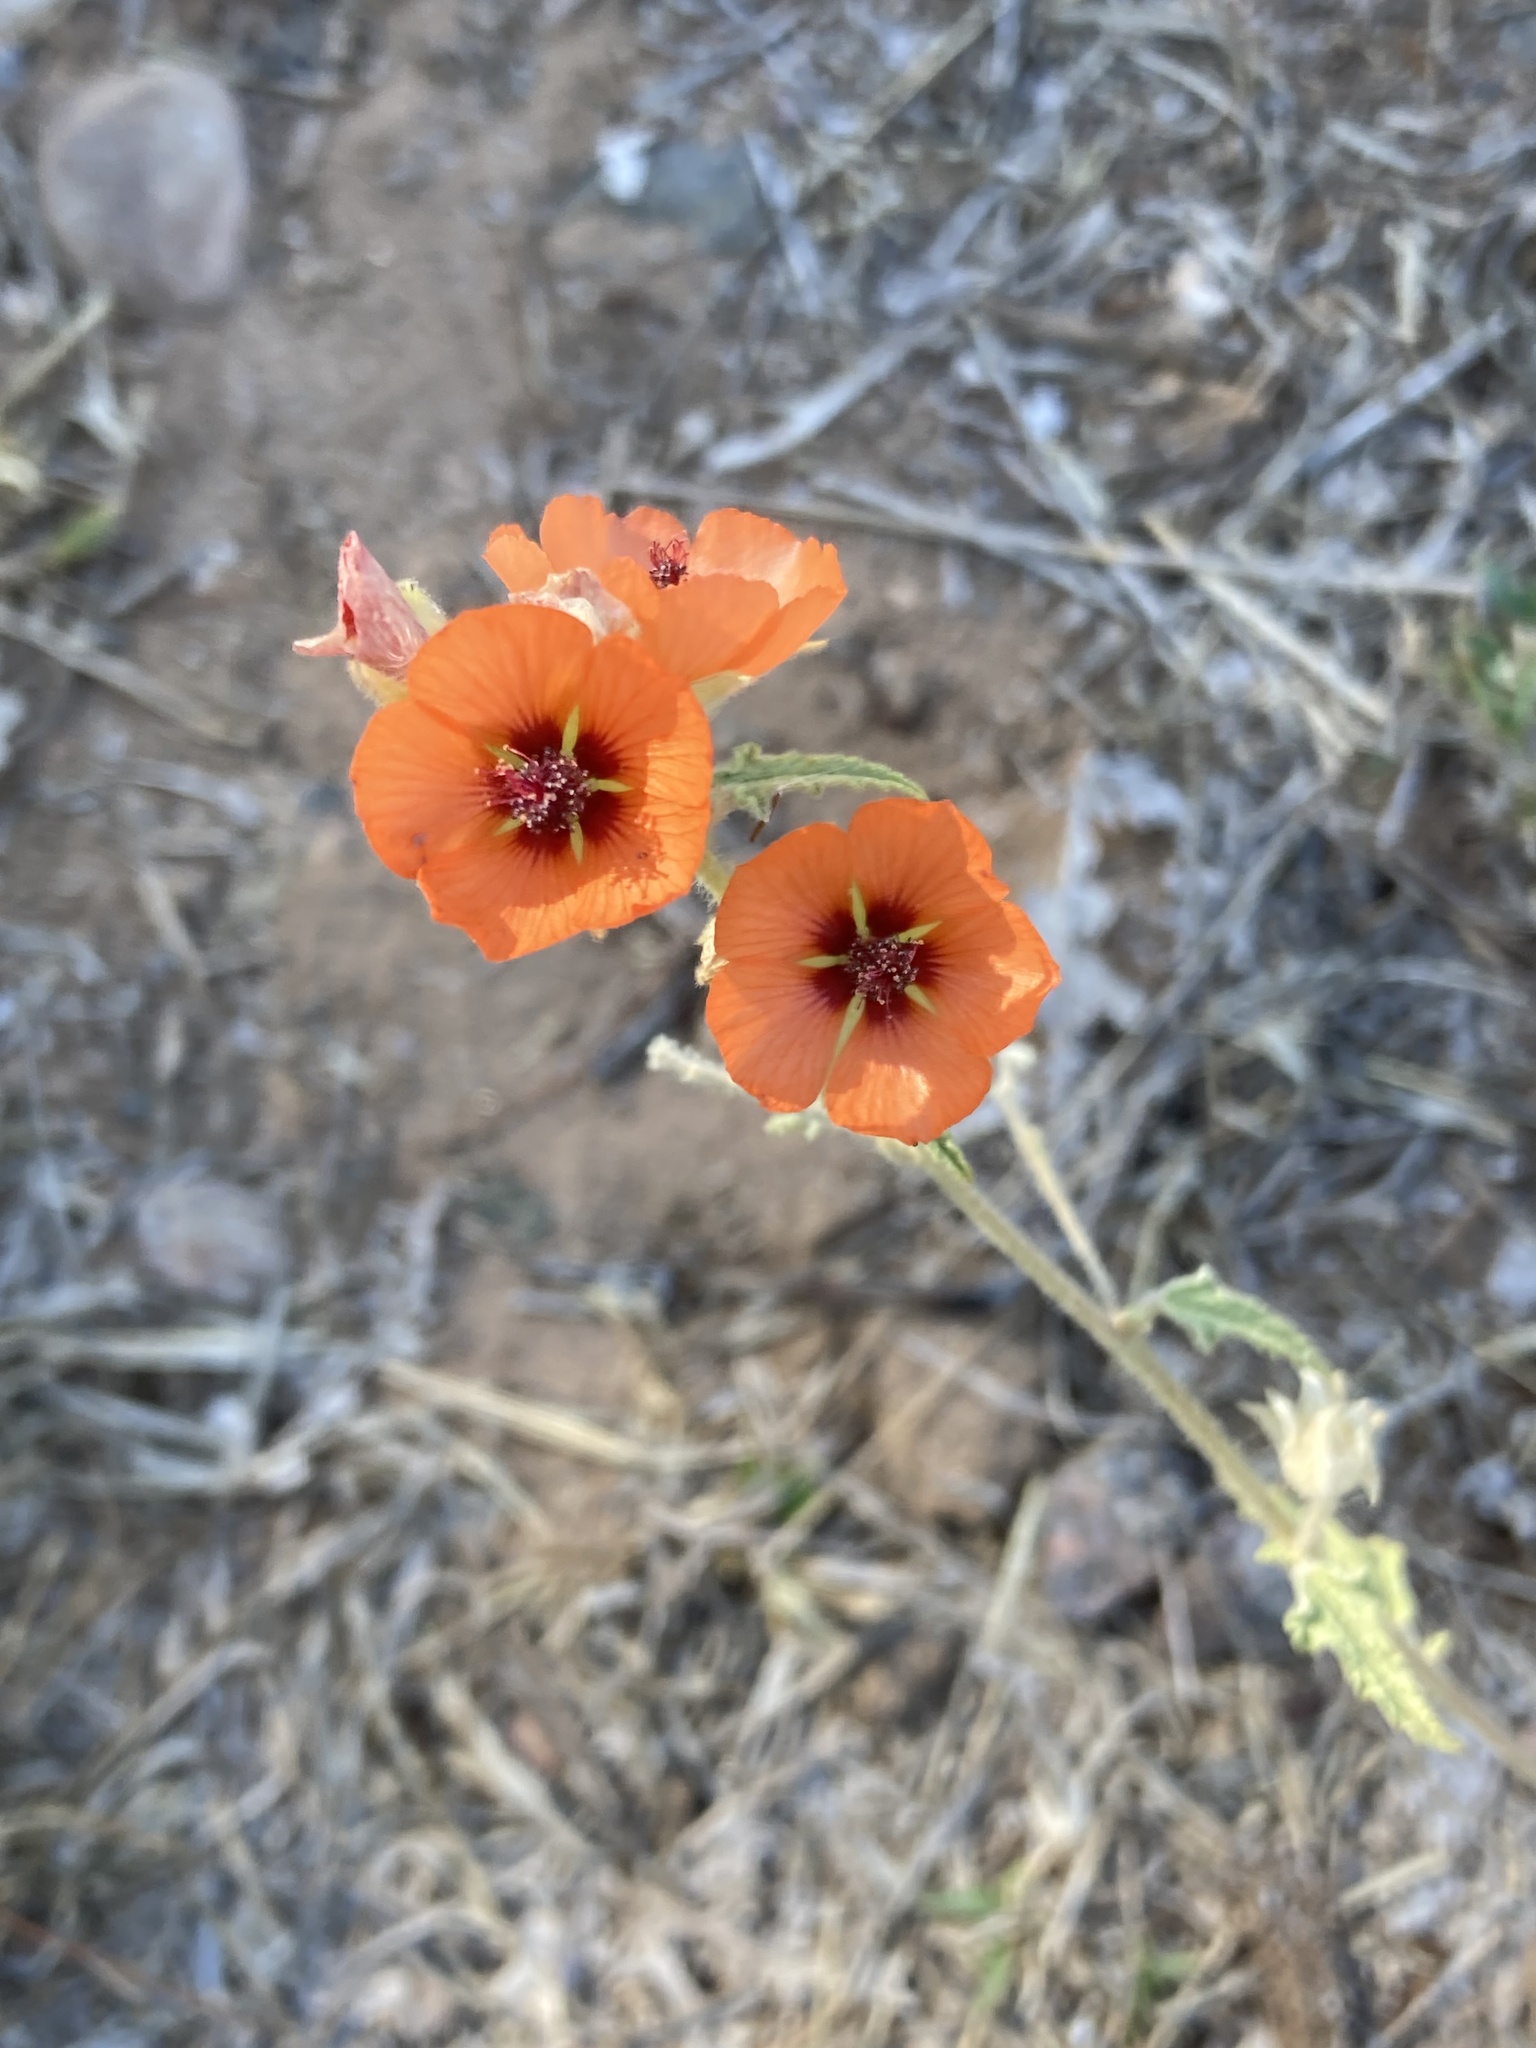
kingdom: Plantae
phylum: Tracheophyta
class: Magnoliopsida
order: Malvales
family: Malvaceae
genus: Sphaeralcea
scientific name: Sphaeralcea miniata
